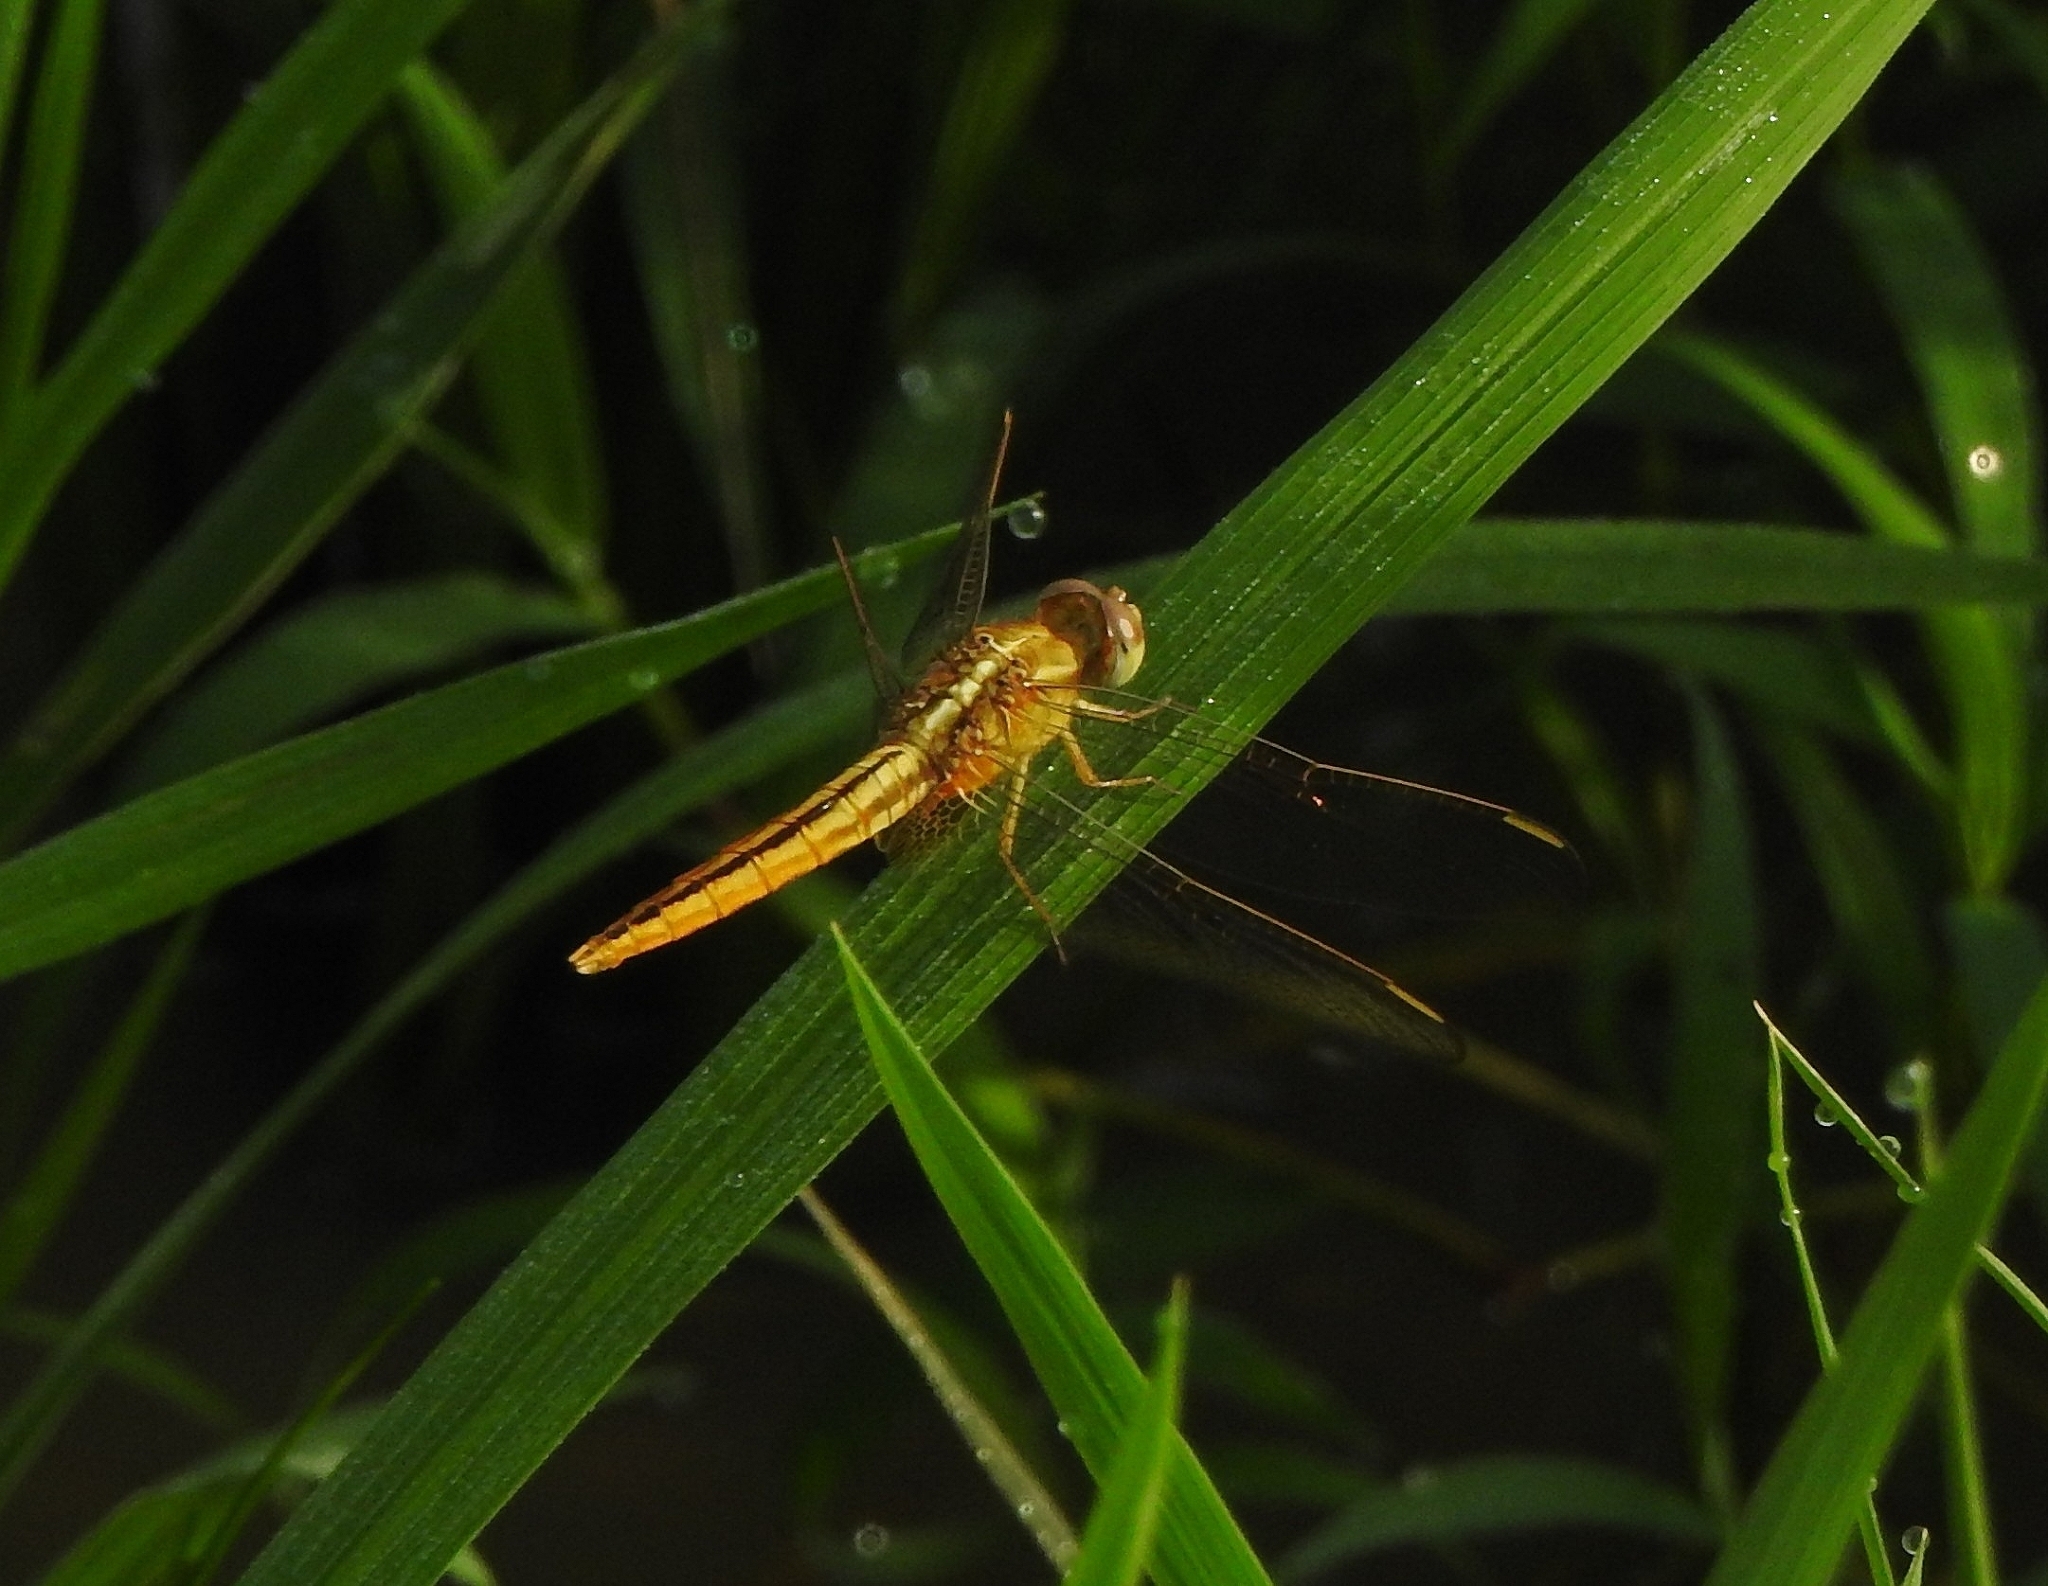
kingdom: Animalia
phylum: Arthropoda
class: Insecta
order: Odonata
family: Libellulidae
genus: Crocothemis
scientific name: Crocothemis servilia
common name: Scarlet skimmer
